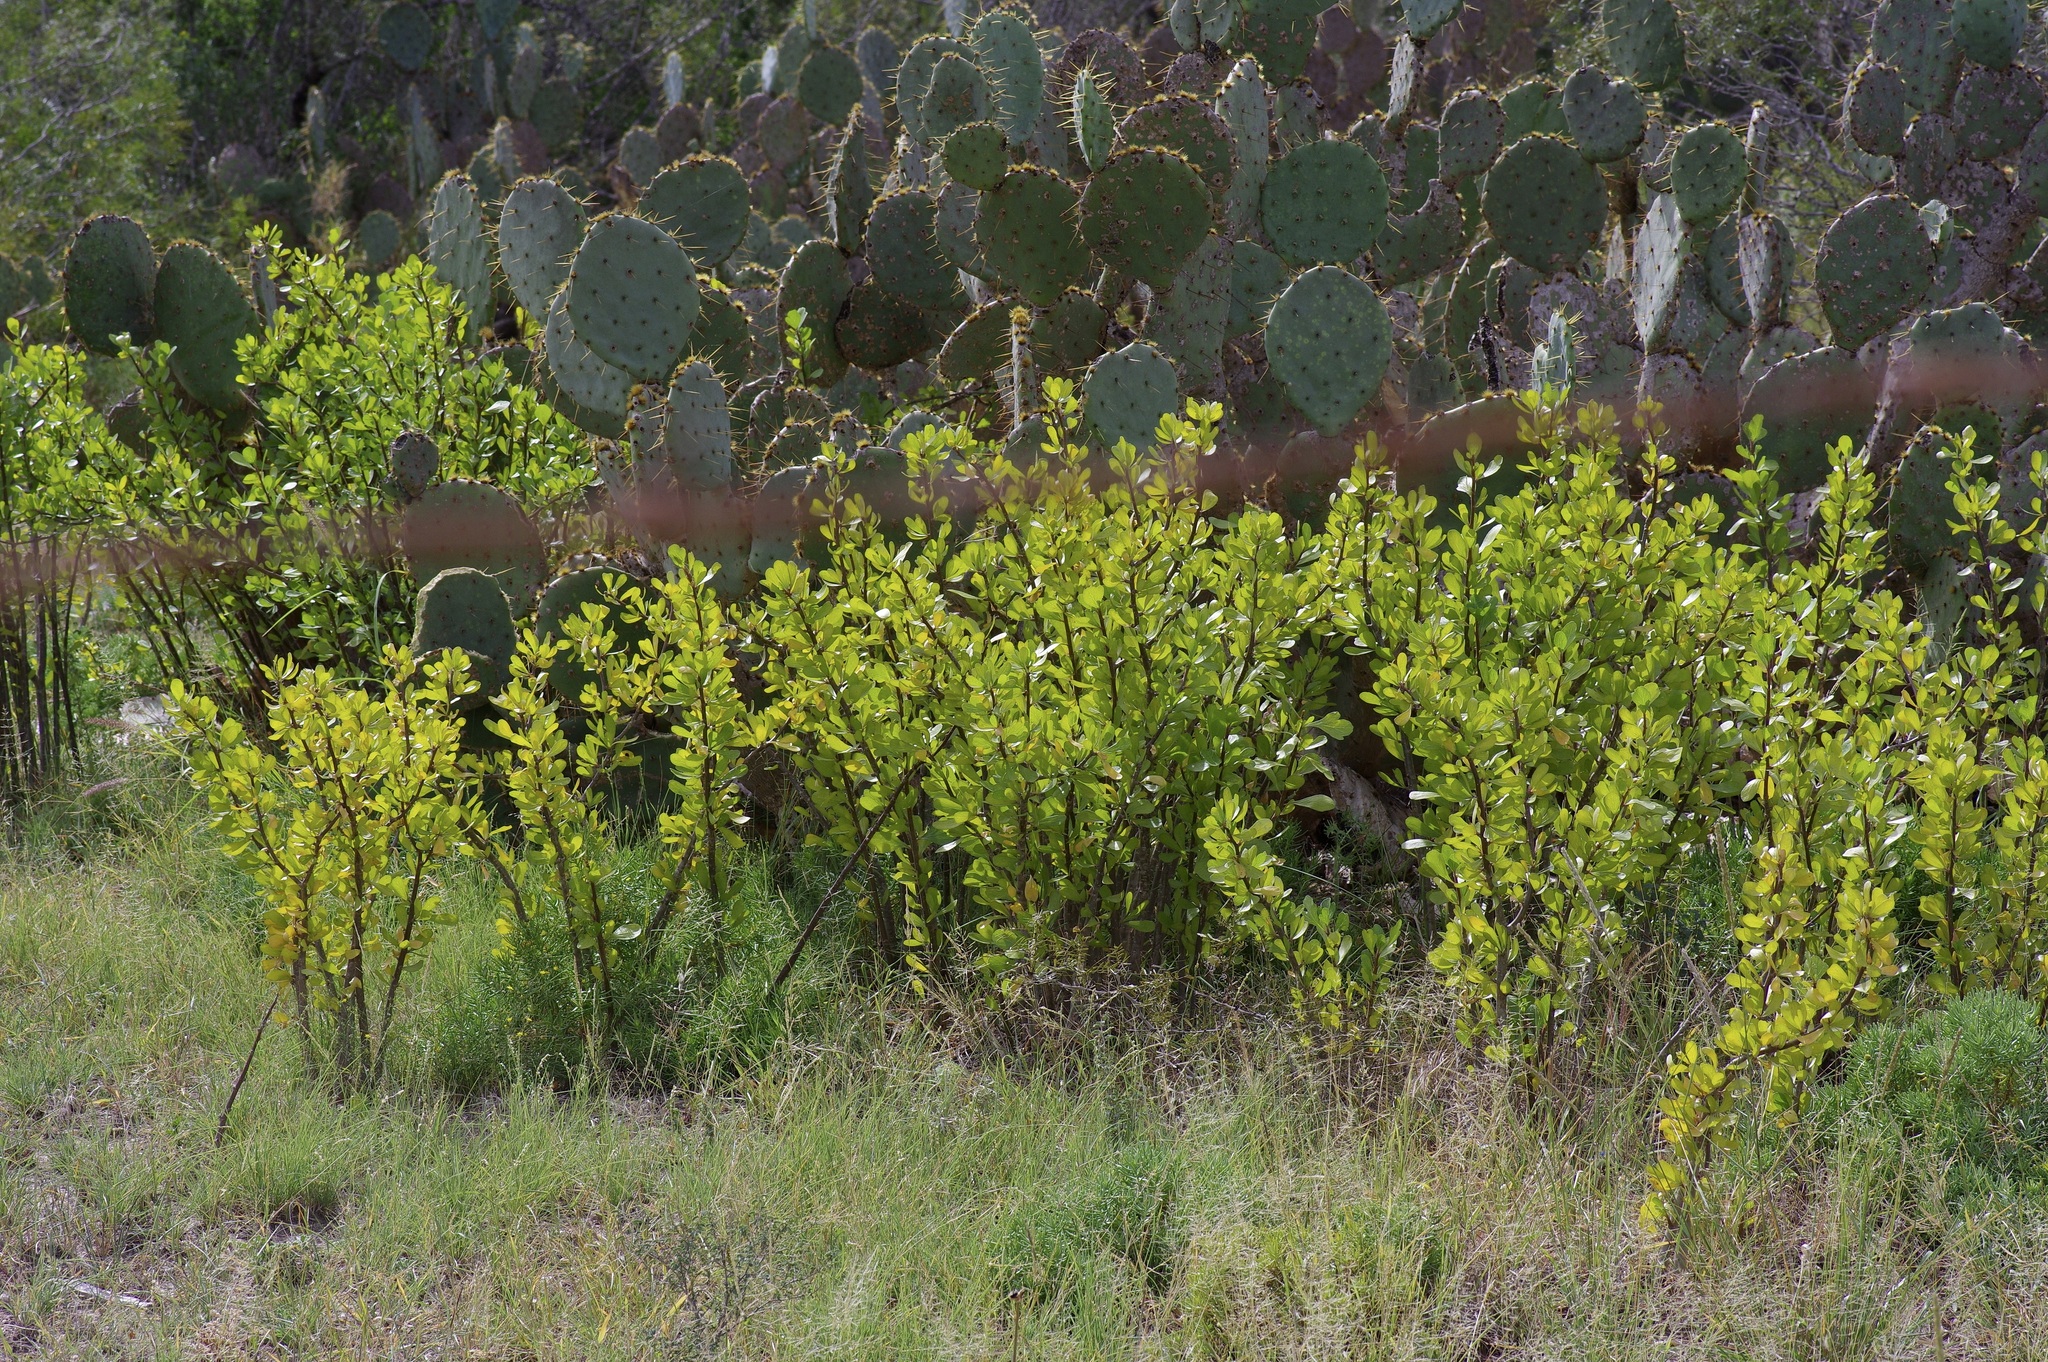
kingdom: Plantae
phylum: Tracheophyta
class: Magnoliopsida
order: Malpighiales
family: Euphorbiaceae
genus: Jatropha
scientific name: Jatropha dioica
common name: Leatherstem
